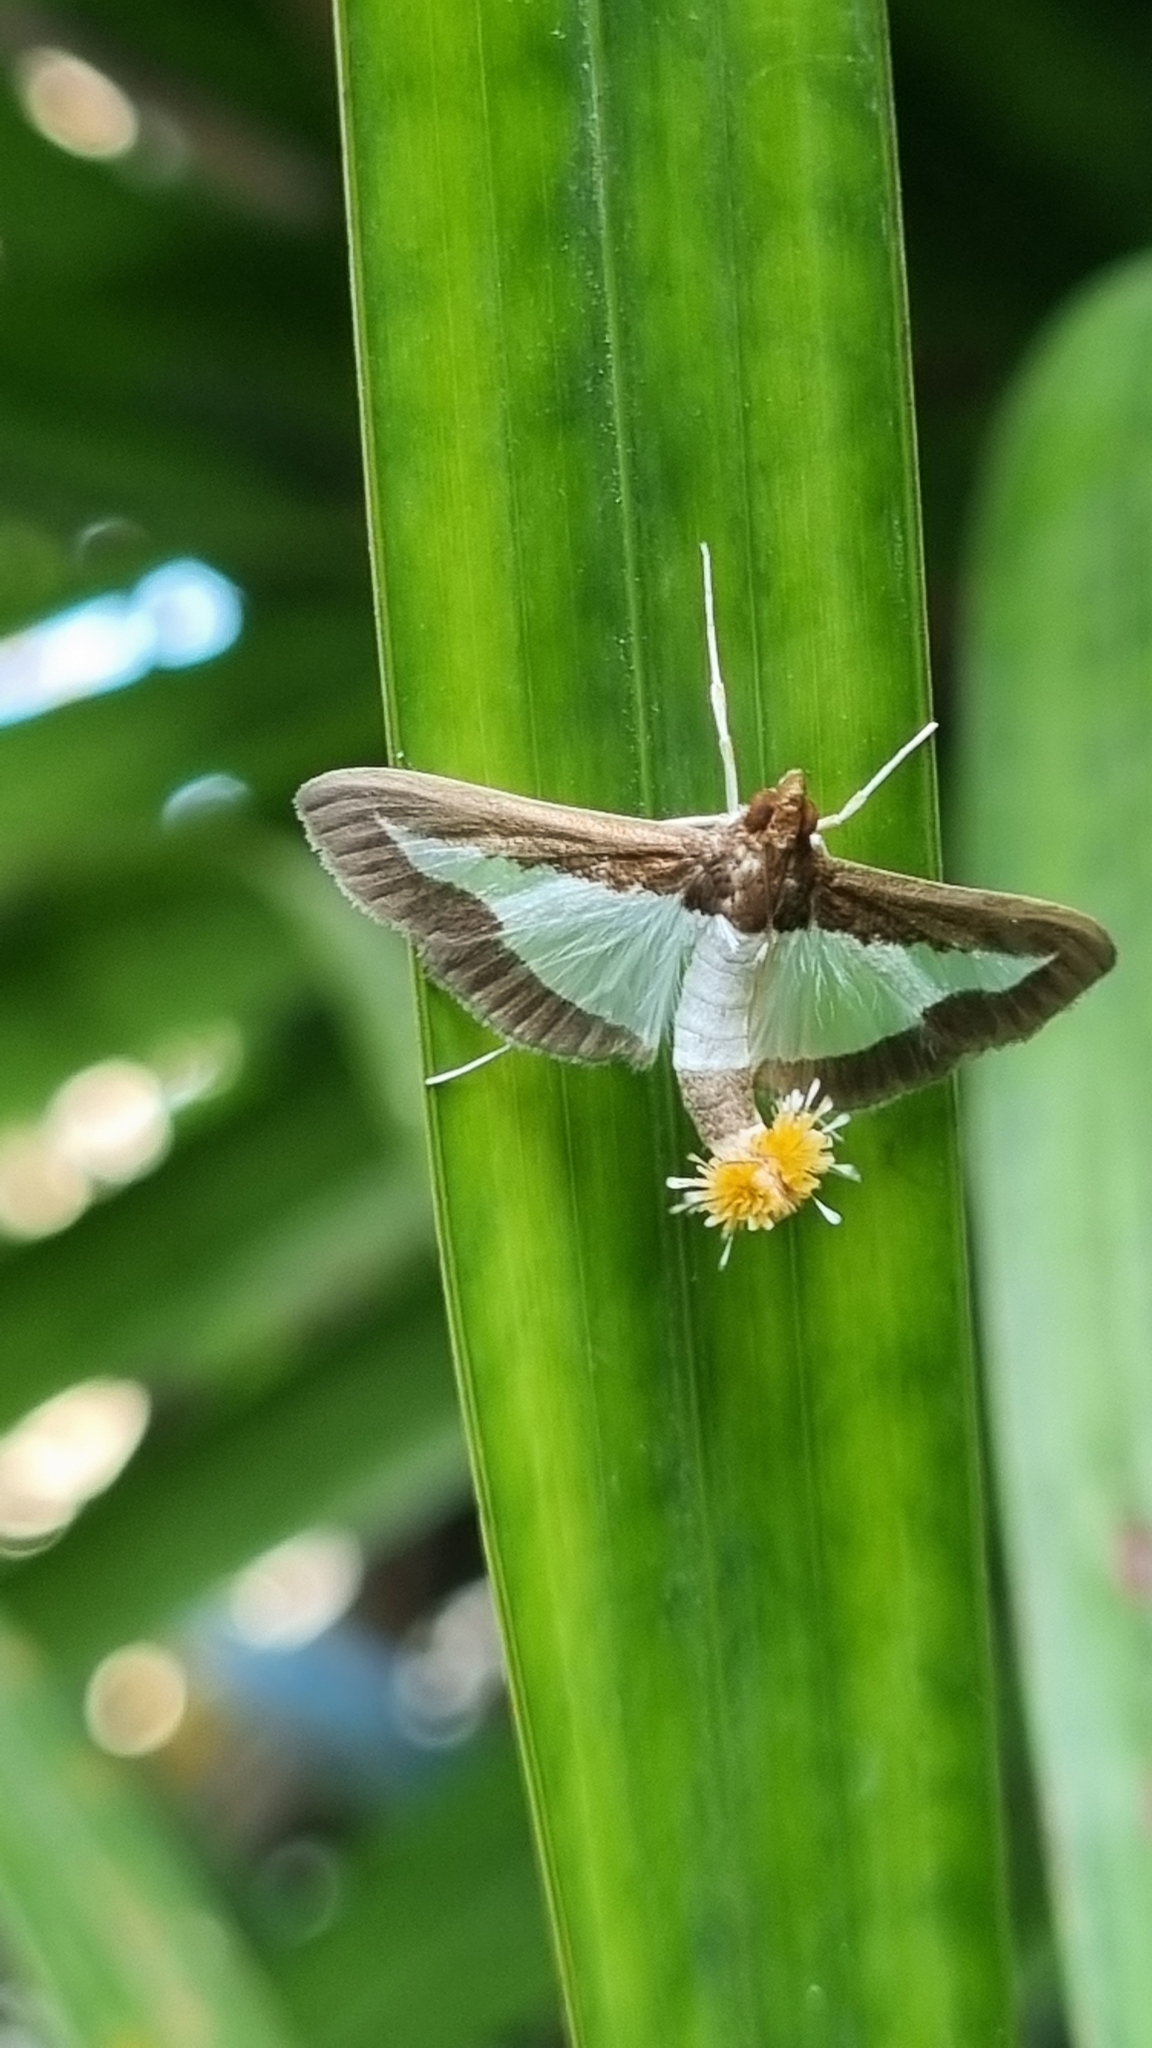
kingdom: Animalia
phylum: Arthropoda
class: Insecta
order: Lepidoptera
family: Crambidae
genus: Diaphania
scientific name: Diaphania indica
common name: Cucumber moth
